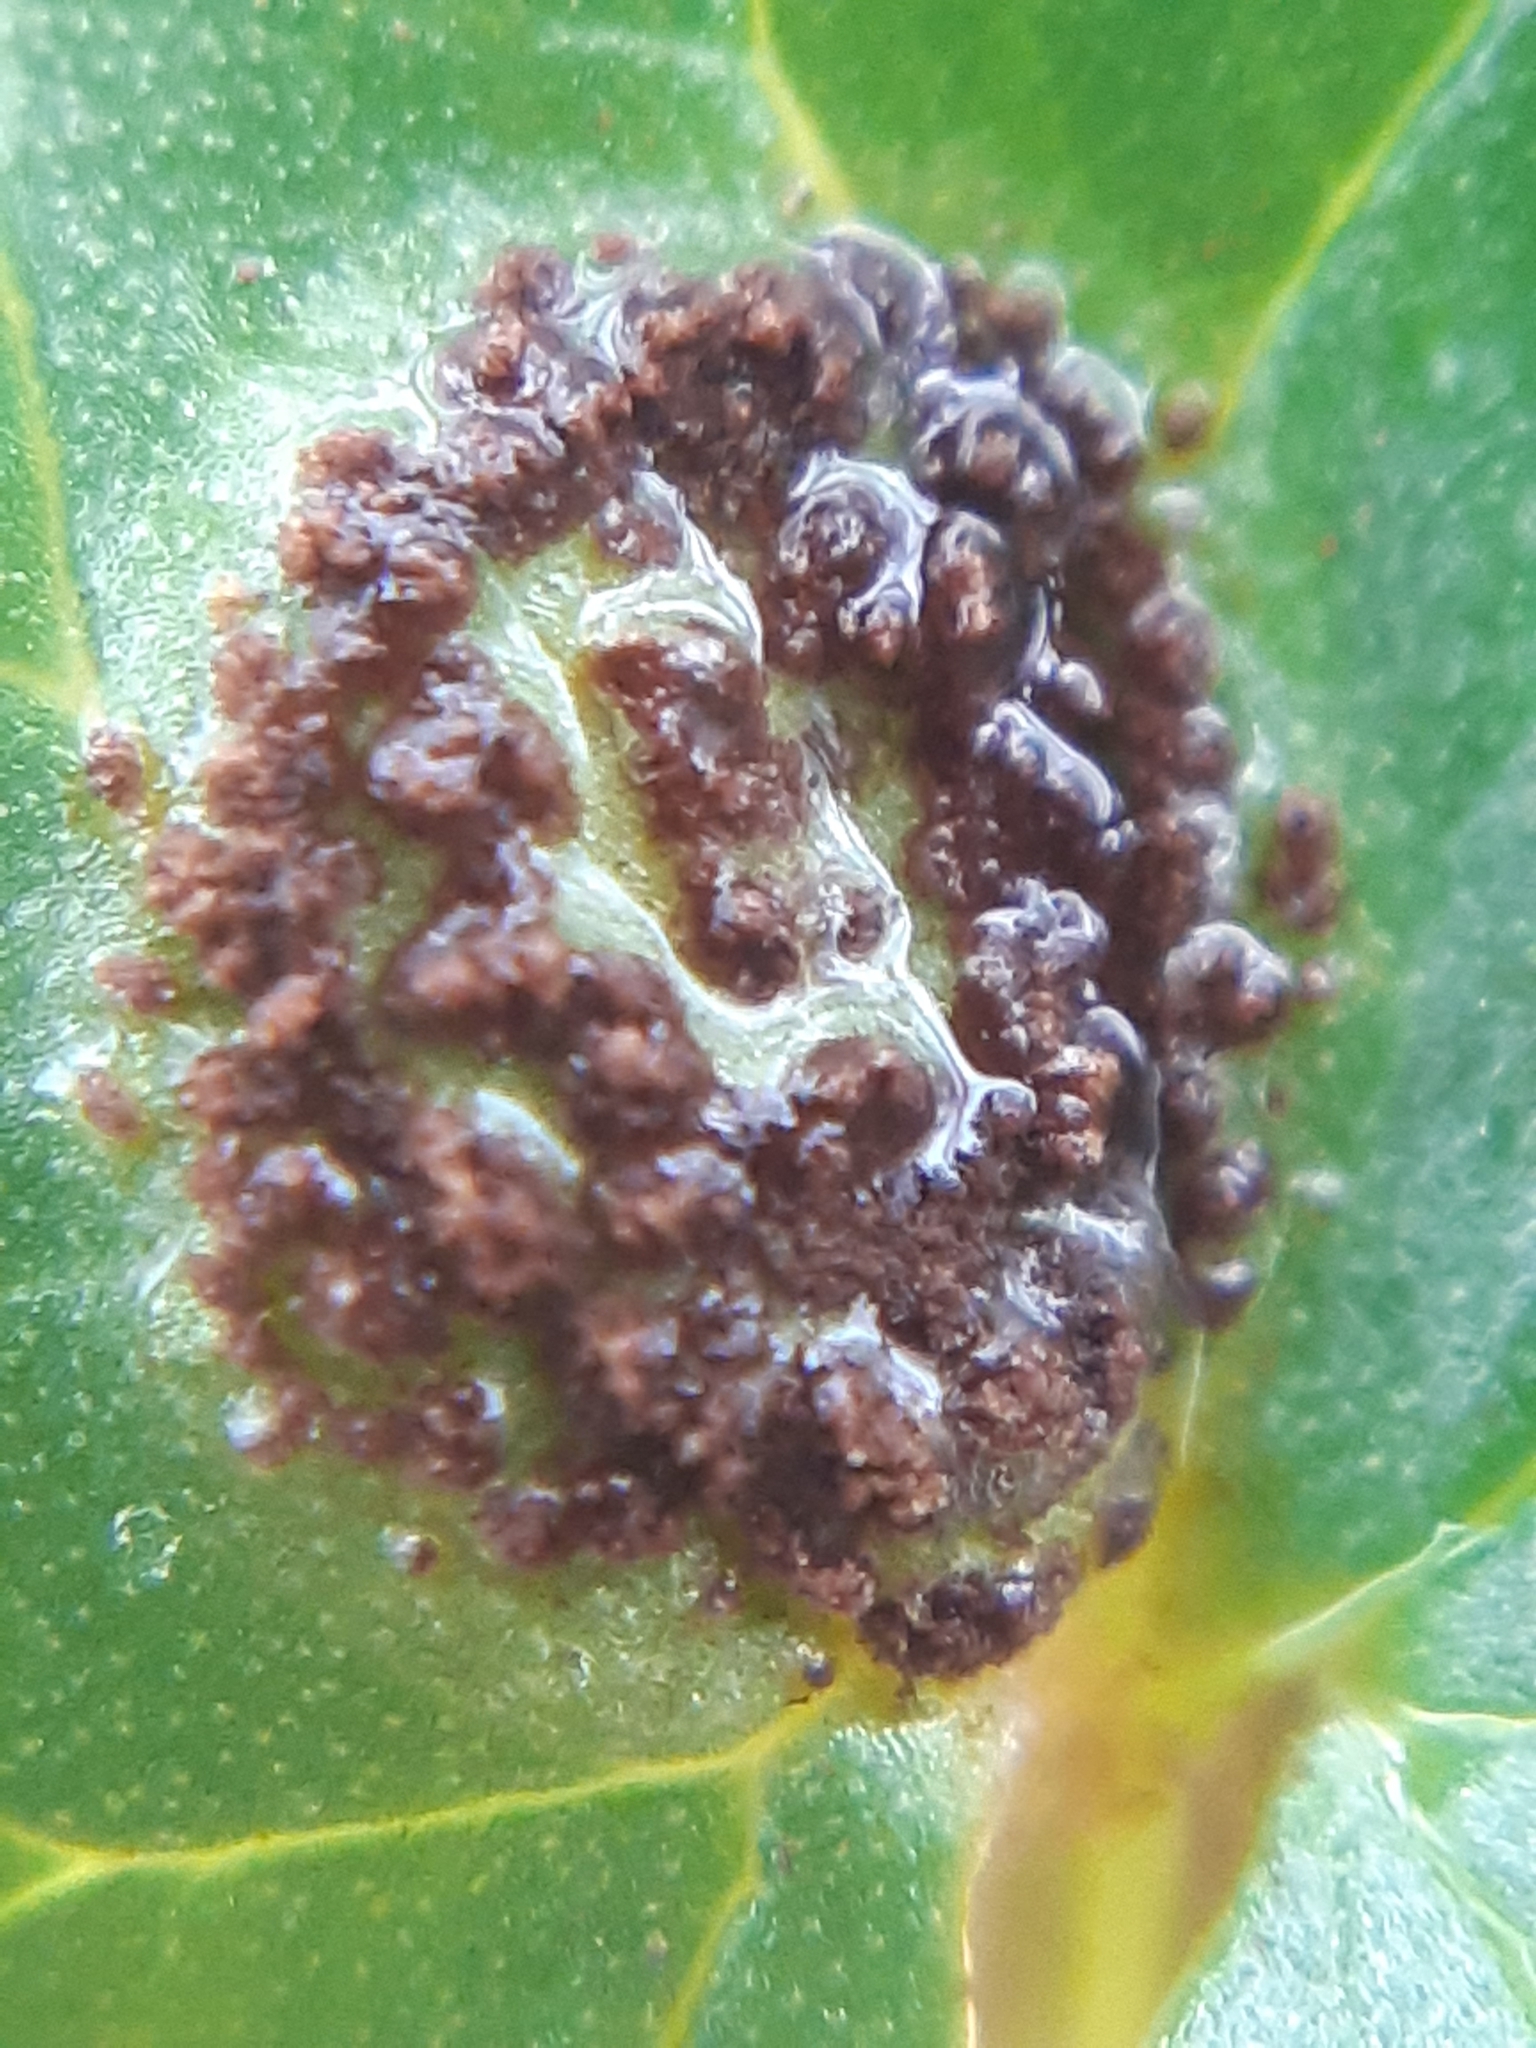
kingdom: Fungi
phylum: Basidiomycota
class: Pucciniomycetes
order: Pucciniales
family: Pucciniaceae
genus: Uromyces
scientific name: Uromyces ficariae
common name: Bitter chocolate rust
